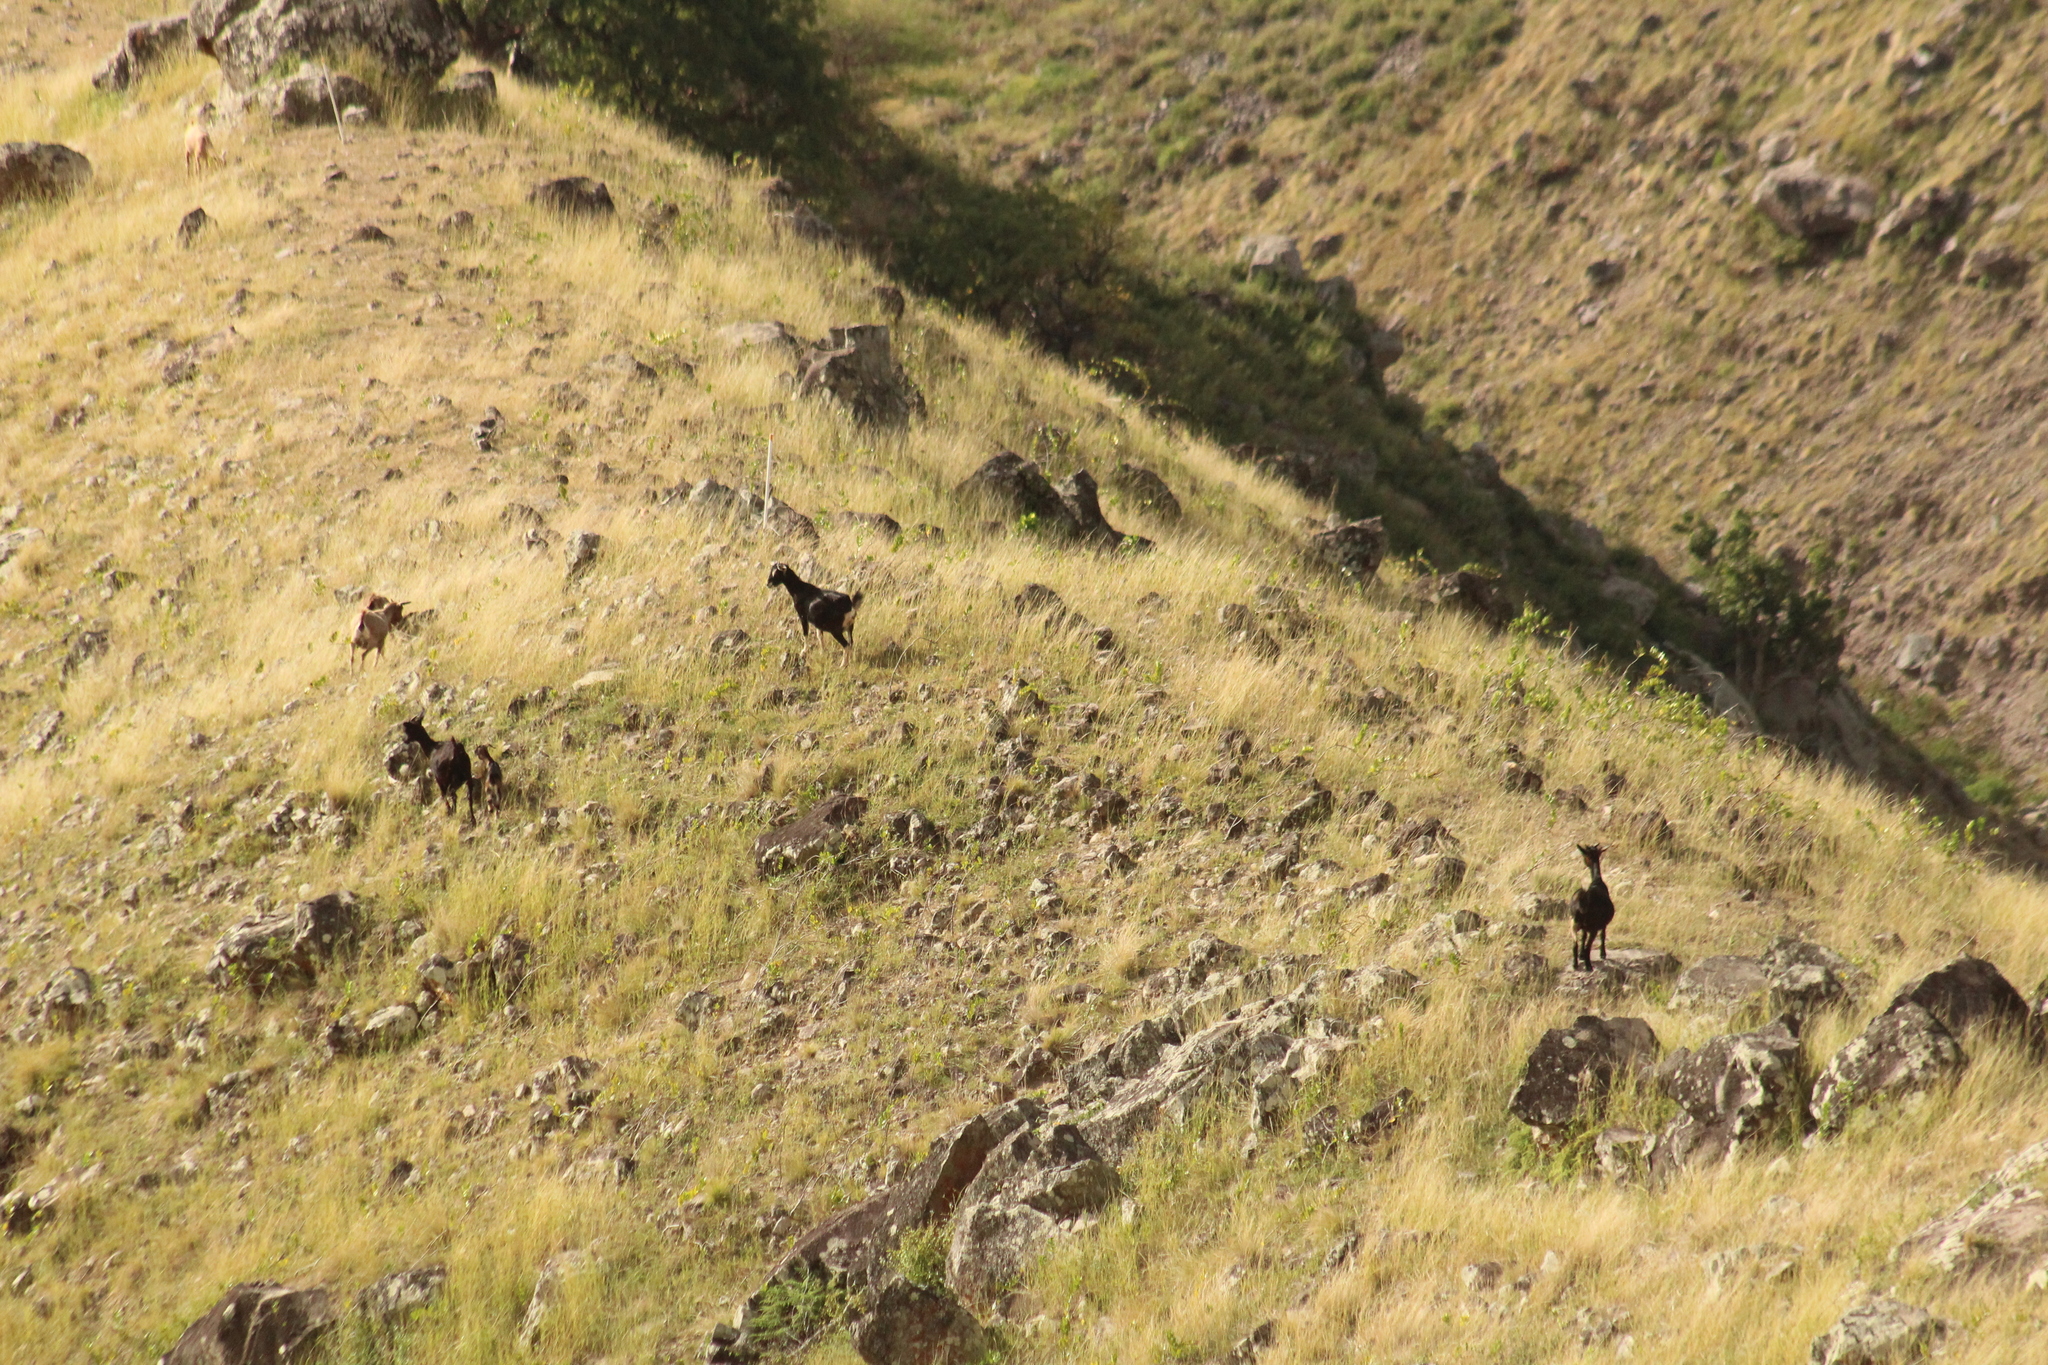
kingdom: Animalia
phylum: Chordata
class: Mammalia
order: Artiodactyla
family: Bovidae
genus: Capra
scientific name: Capra hircus
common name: Domestic goat
